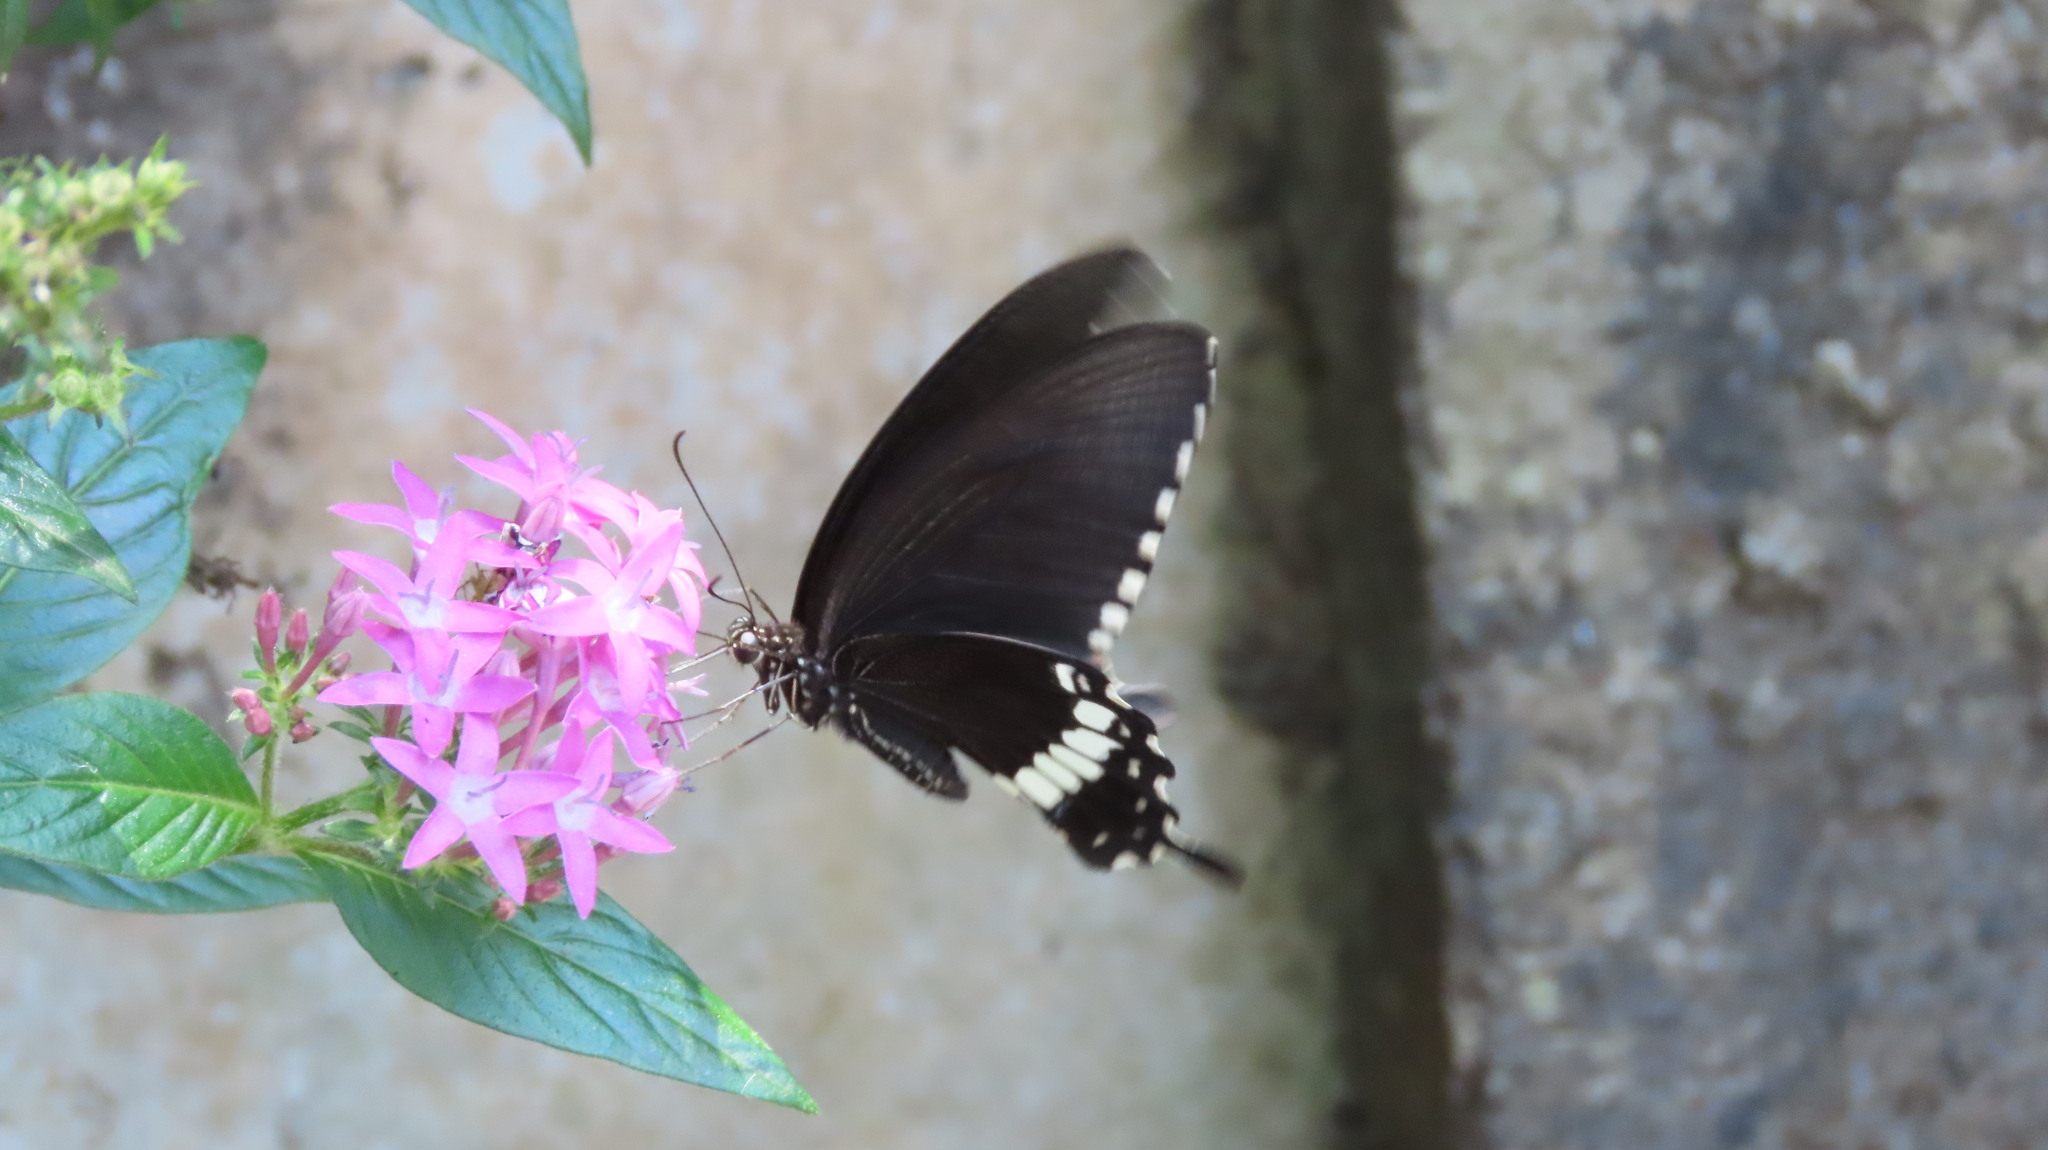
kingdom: Animalia
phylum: Arthropoda
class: Insecta
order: Lepidoptera
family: Papilionidae
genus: Papilio
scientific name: Papilio polytes
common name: Common mormon
